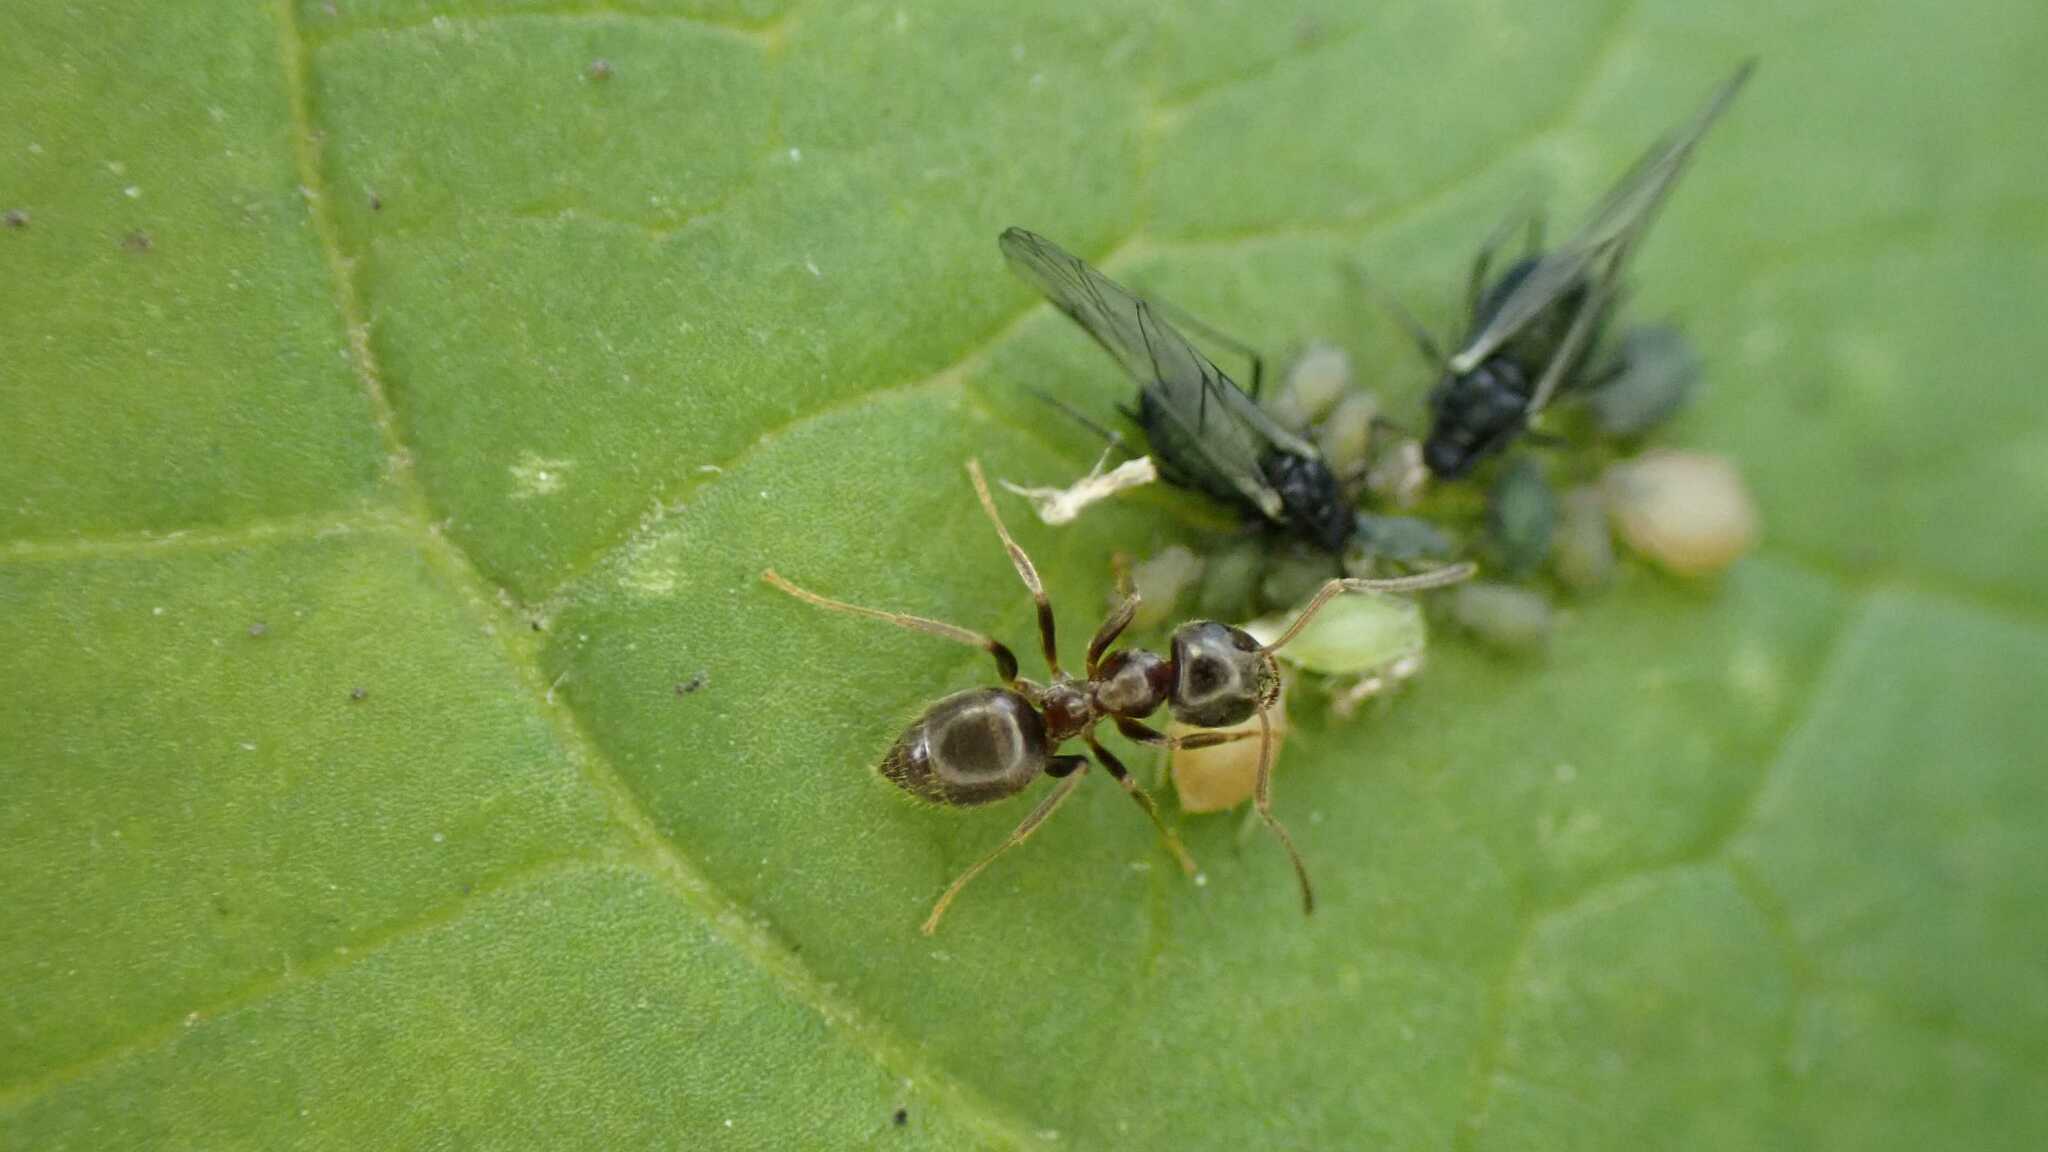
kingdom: Animalia
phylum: Arthropoda
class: Insecta
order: Hymenoptera
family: Formicidae
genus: Lasius
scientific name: Lasius
